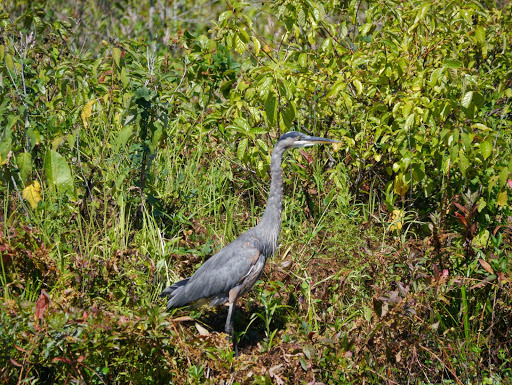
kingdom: Animalia
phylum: Chordata
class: Aves
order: Pelecaniformes
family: Ardeidae
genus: Ardea
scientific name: Ardea herodias
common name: Great blue heron
